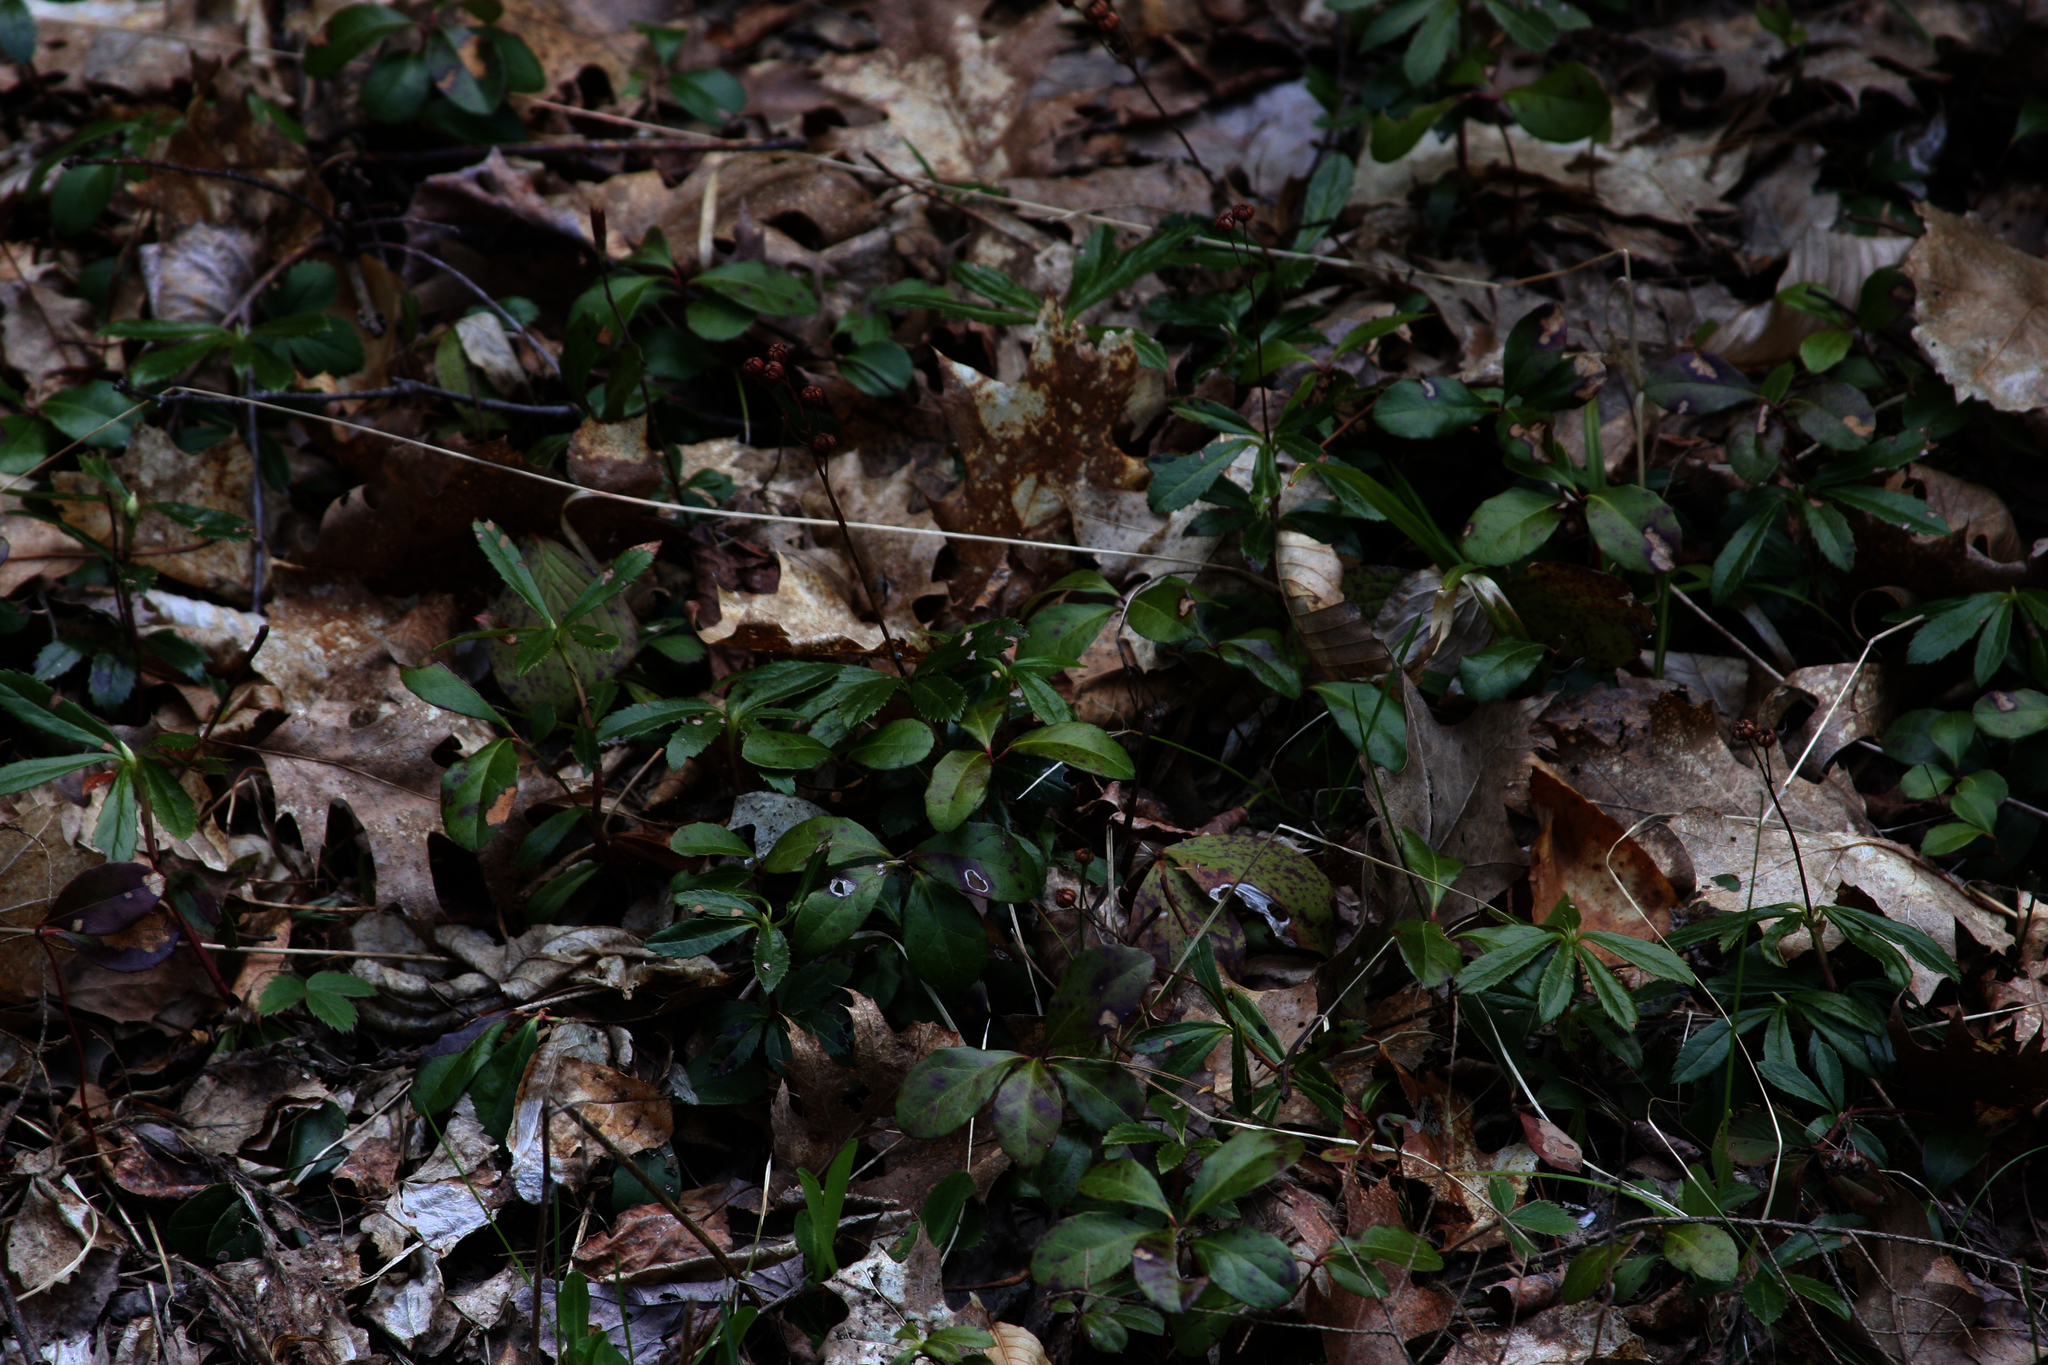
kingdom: Plantae
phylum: Tracheophyta
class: Magnoliopsida
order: Ericales
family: Ericaceae
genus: Gaultheria
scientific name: Gaultheria procumbens
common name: Checkerberry
